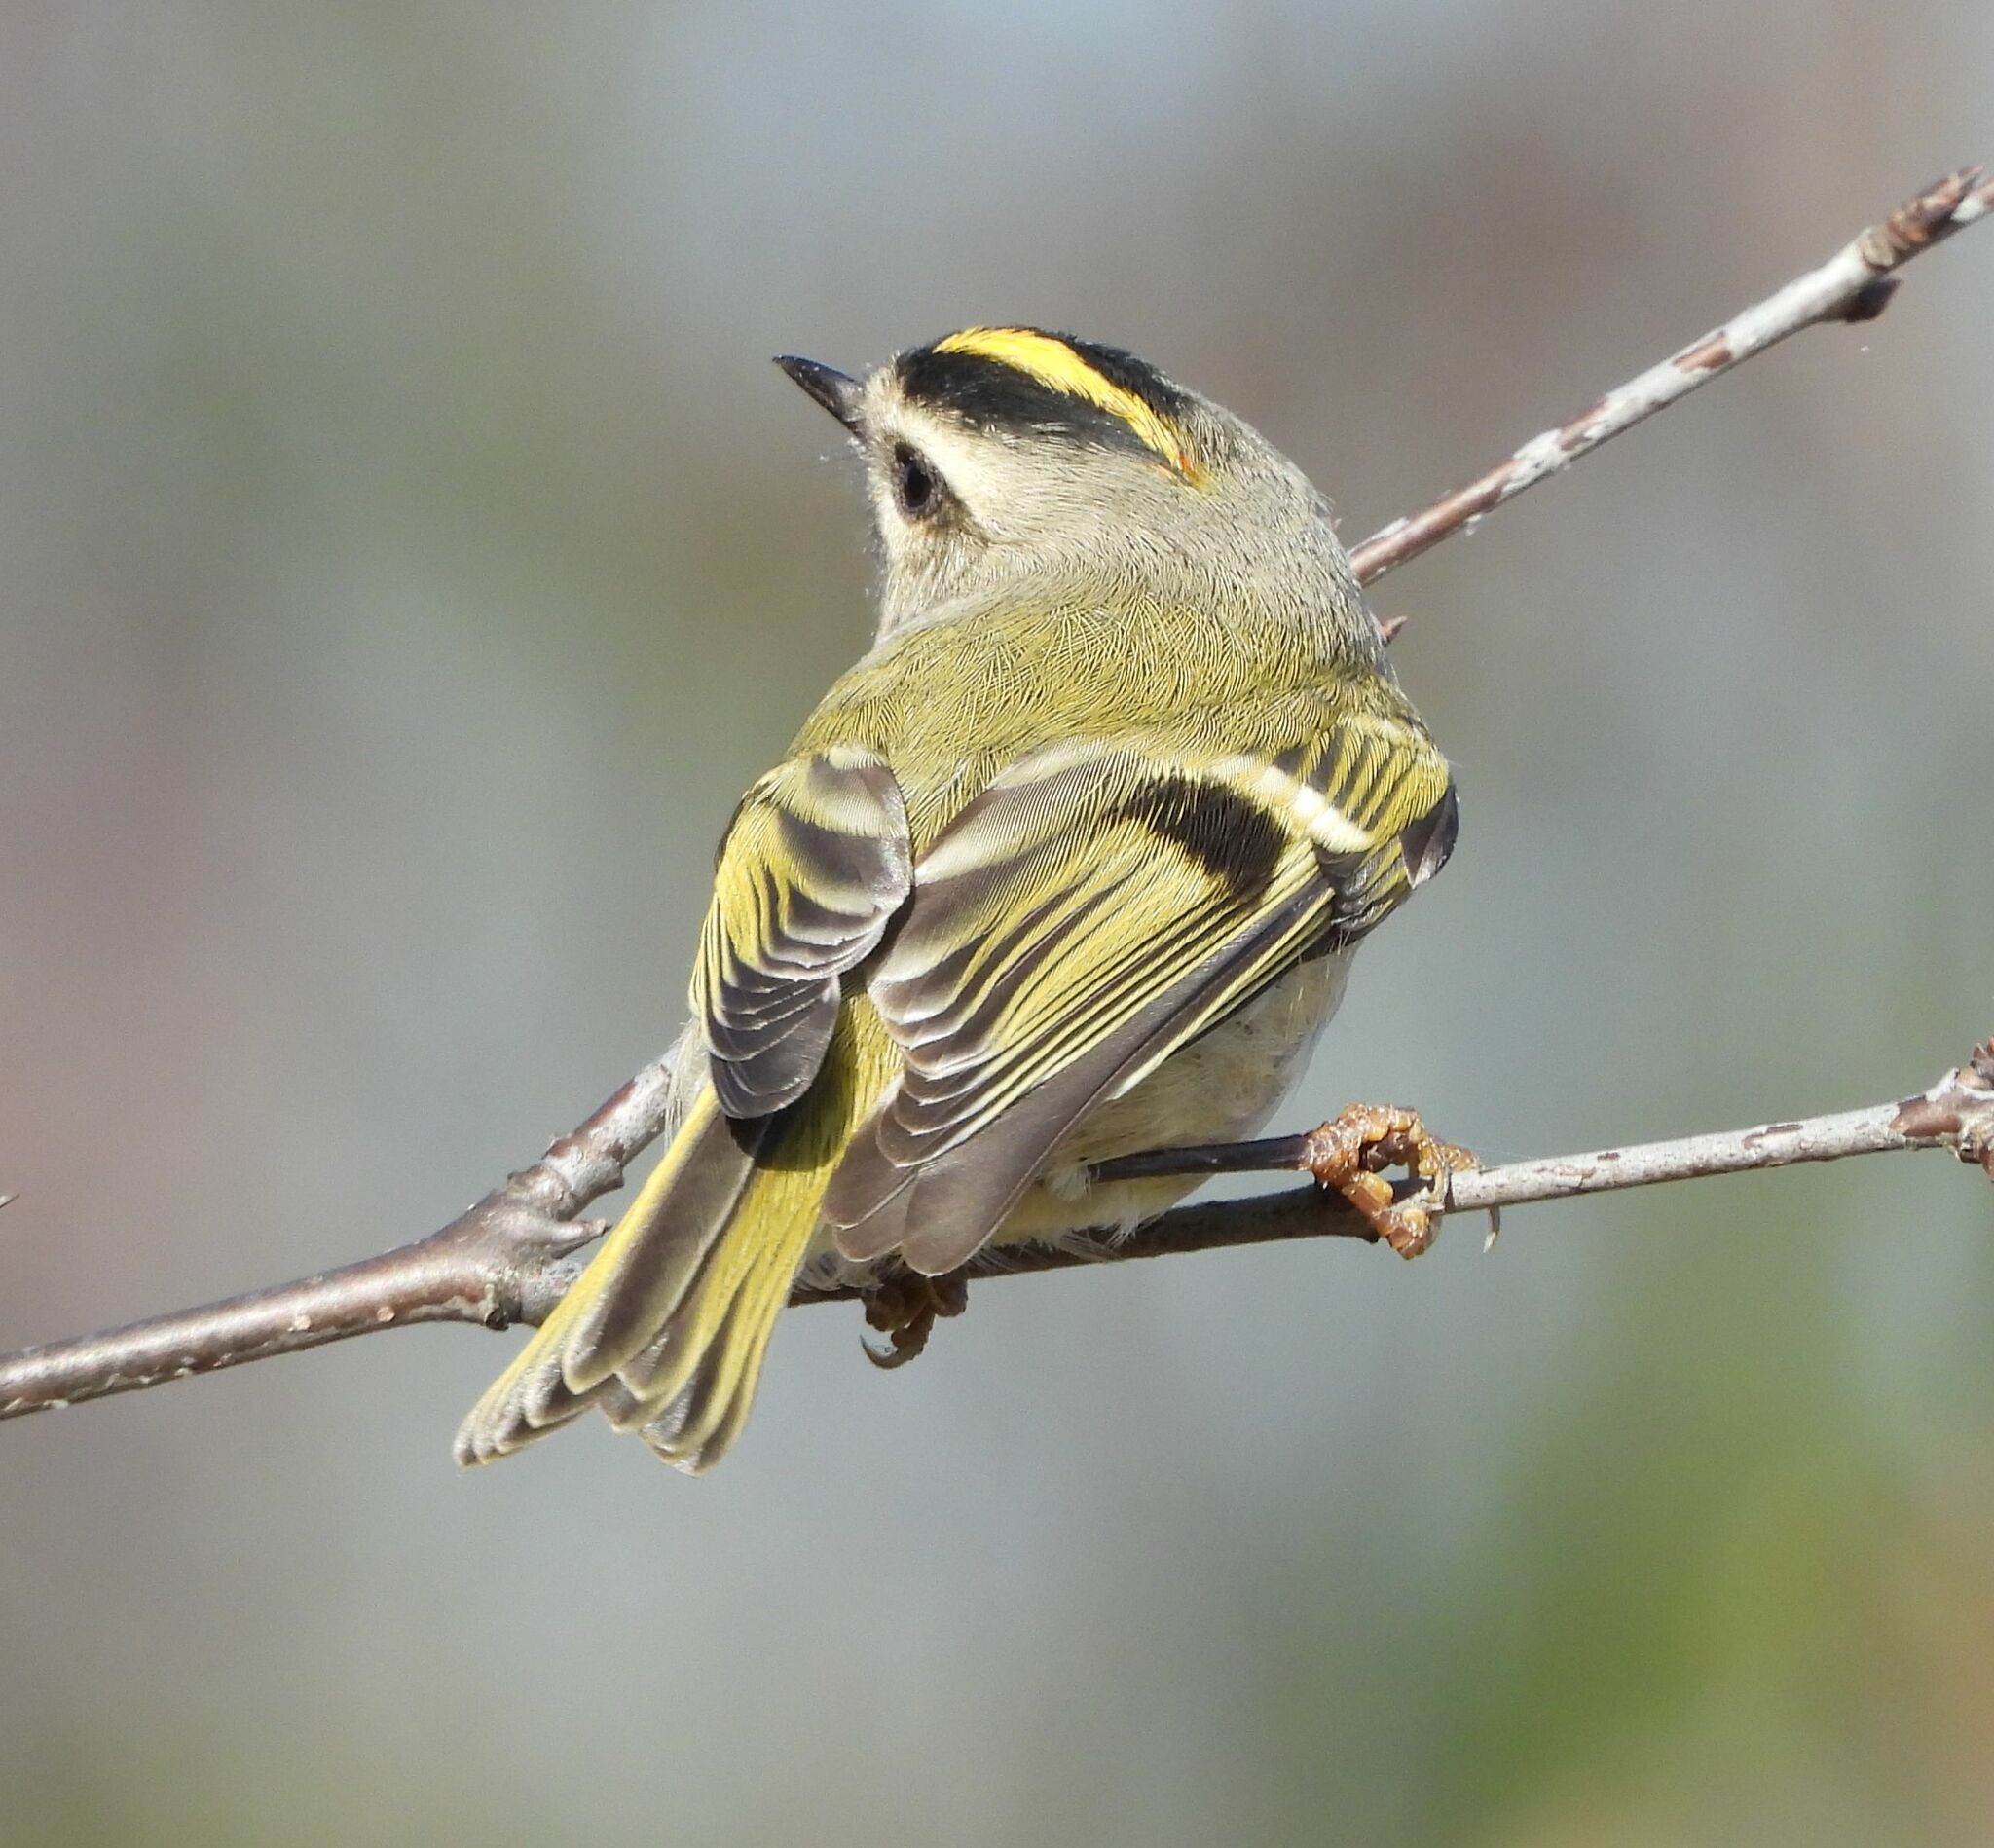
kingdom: Animalia
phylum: Chordata
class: Aves
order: Passeriformes
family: Regulidae
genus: Regulus
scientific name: Regulus satrapa
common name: Golden-crowned kinglet
